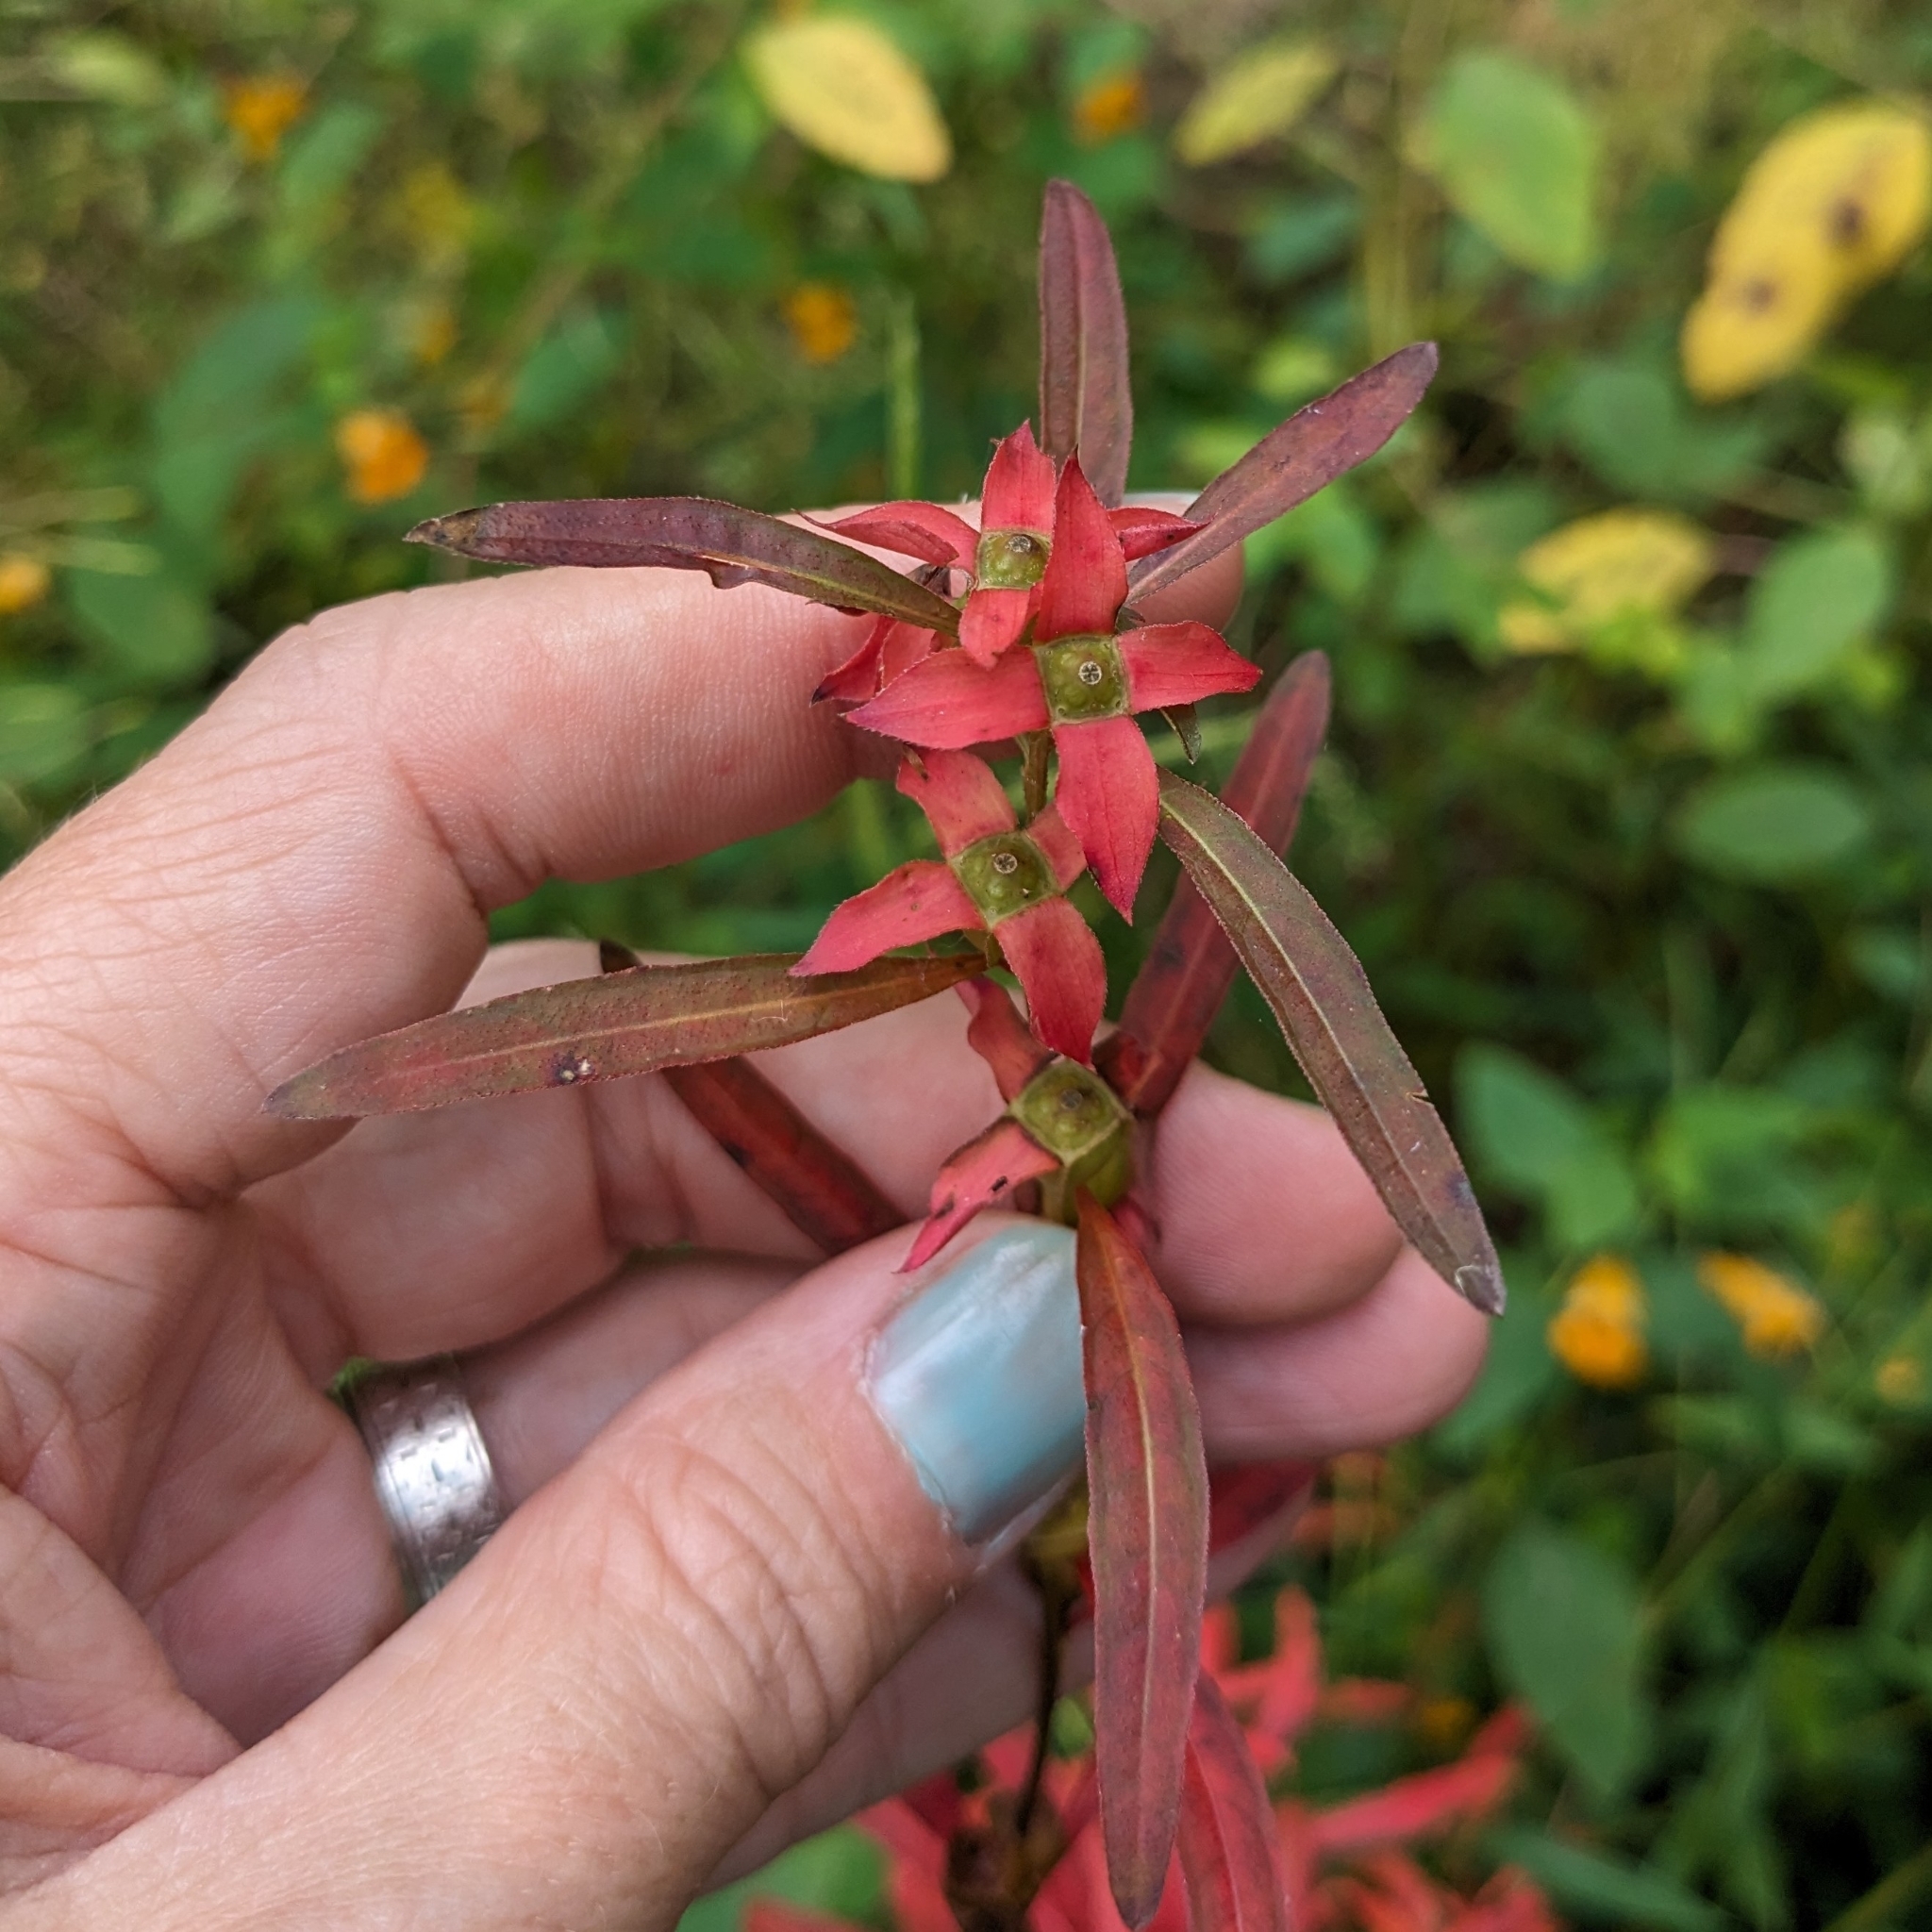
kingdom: Plantae
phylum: Tracheophyta
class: Magnoliopsida
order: Myrtales
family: Onagraceae
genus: Ludwigia
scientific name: Ludwigia alternifolia
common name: Rattlebox
